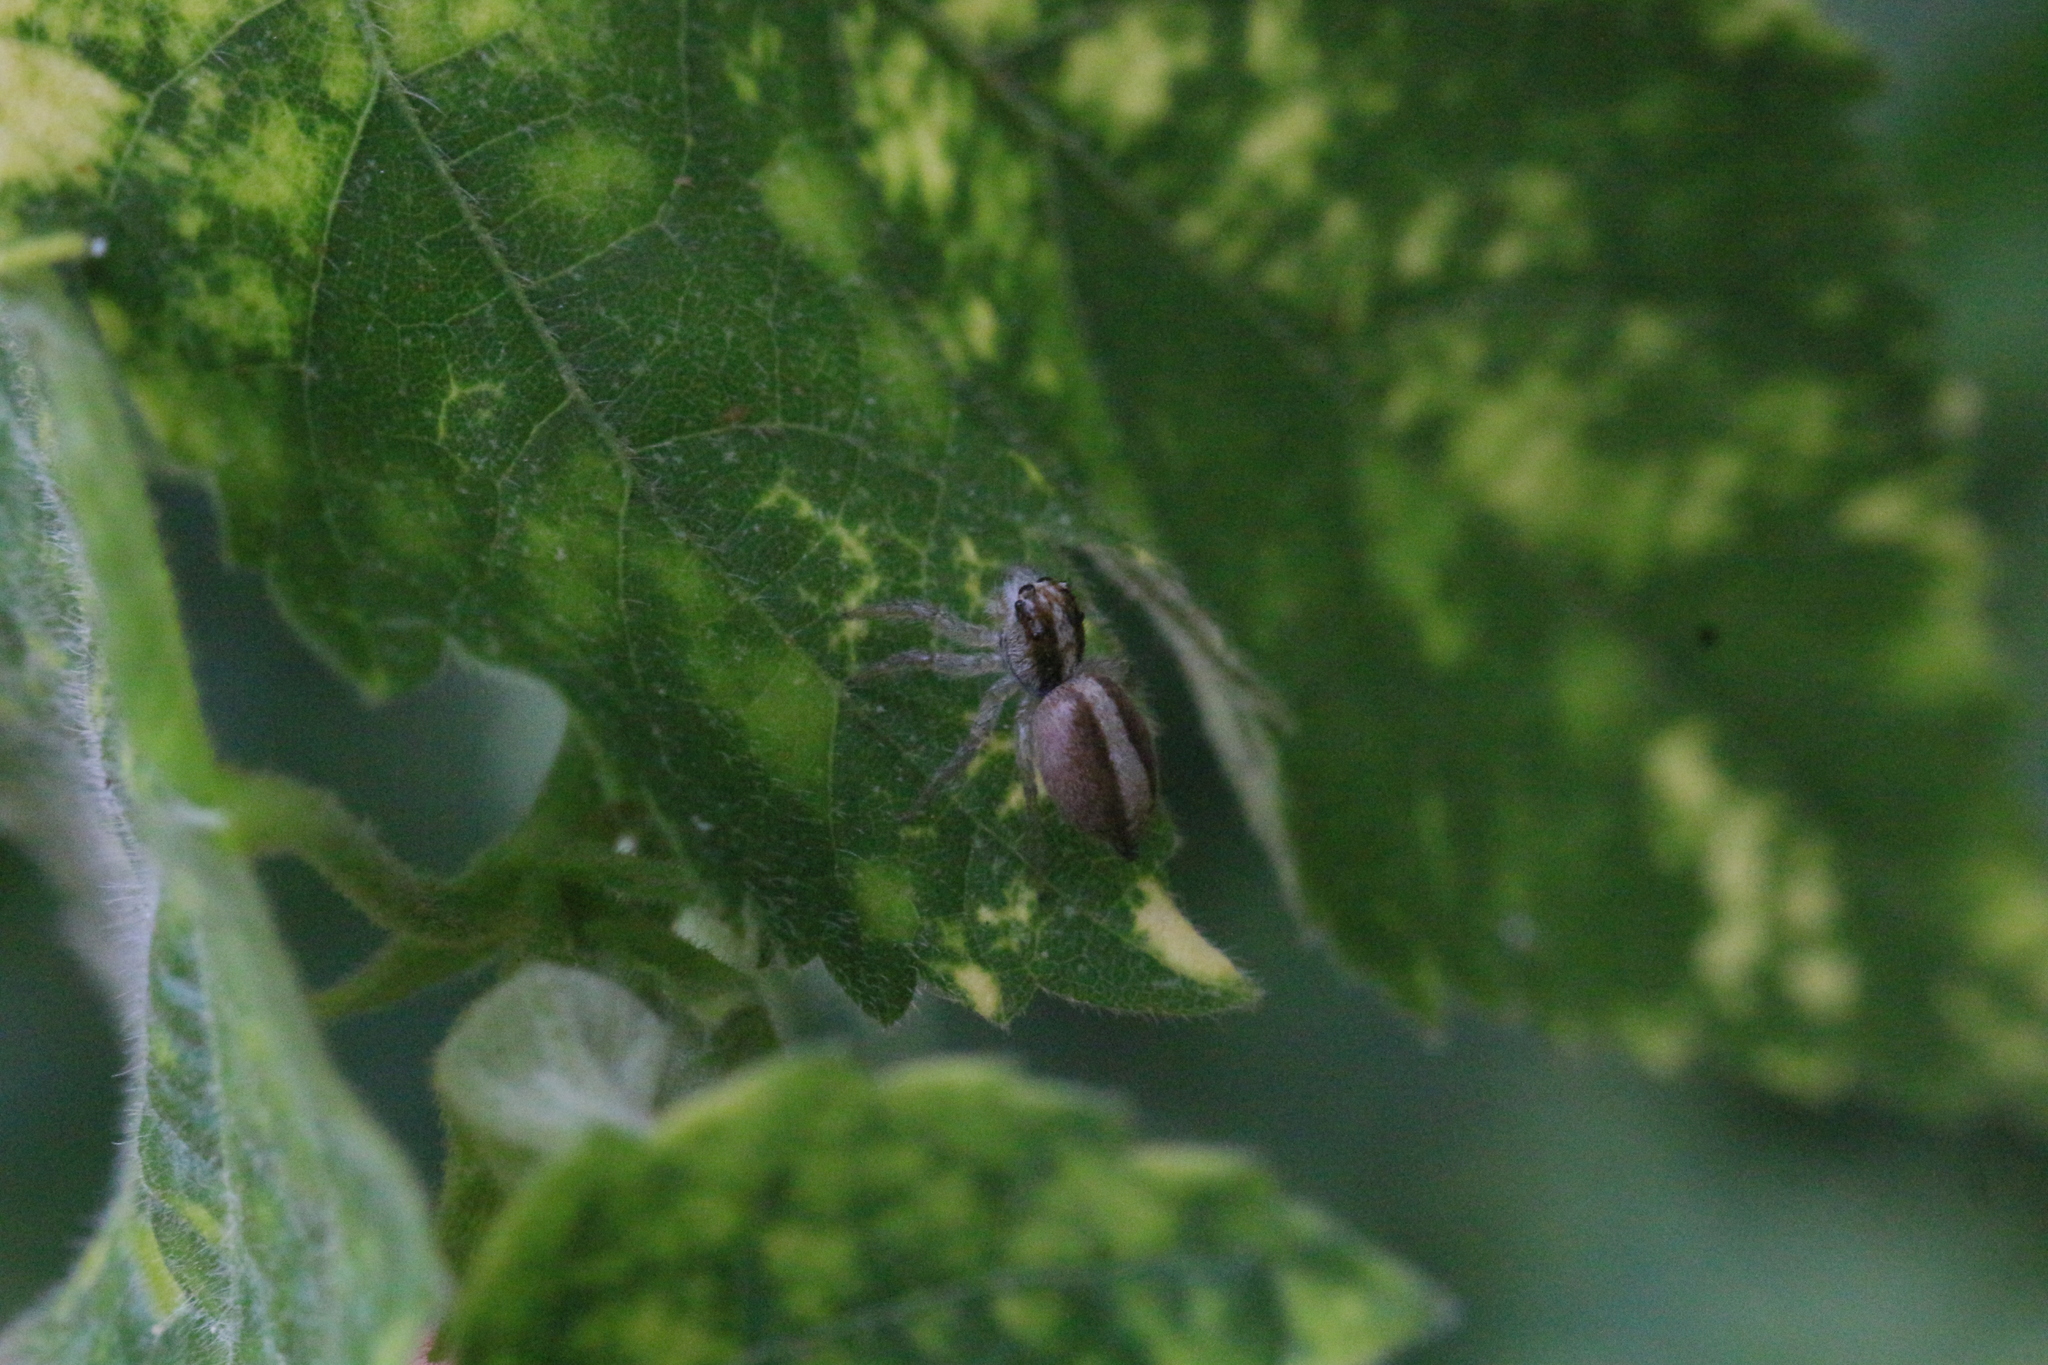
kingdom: Animalia
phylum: Arthropoda
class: Arachnida
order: Araneae
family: Salticidae
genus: Megafreya
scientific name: Megafreya sutrix
